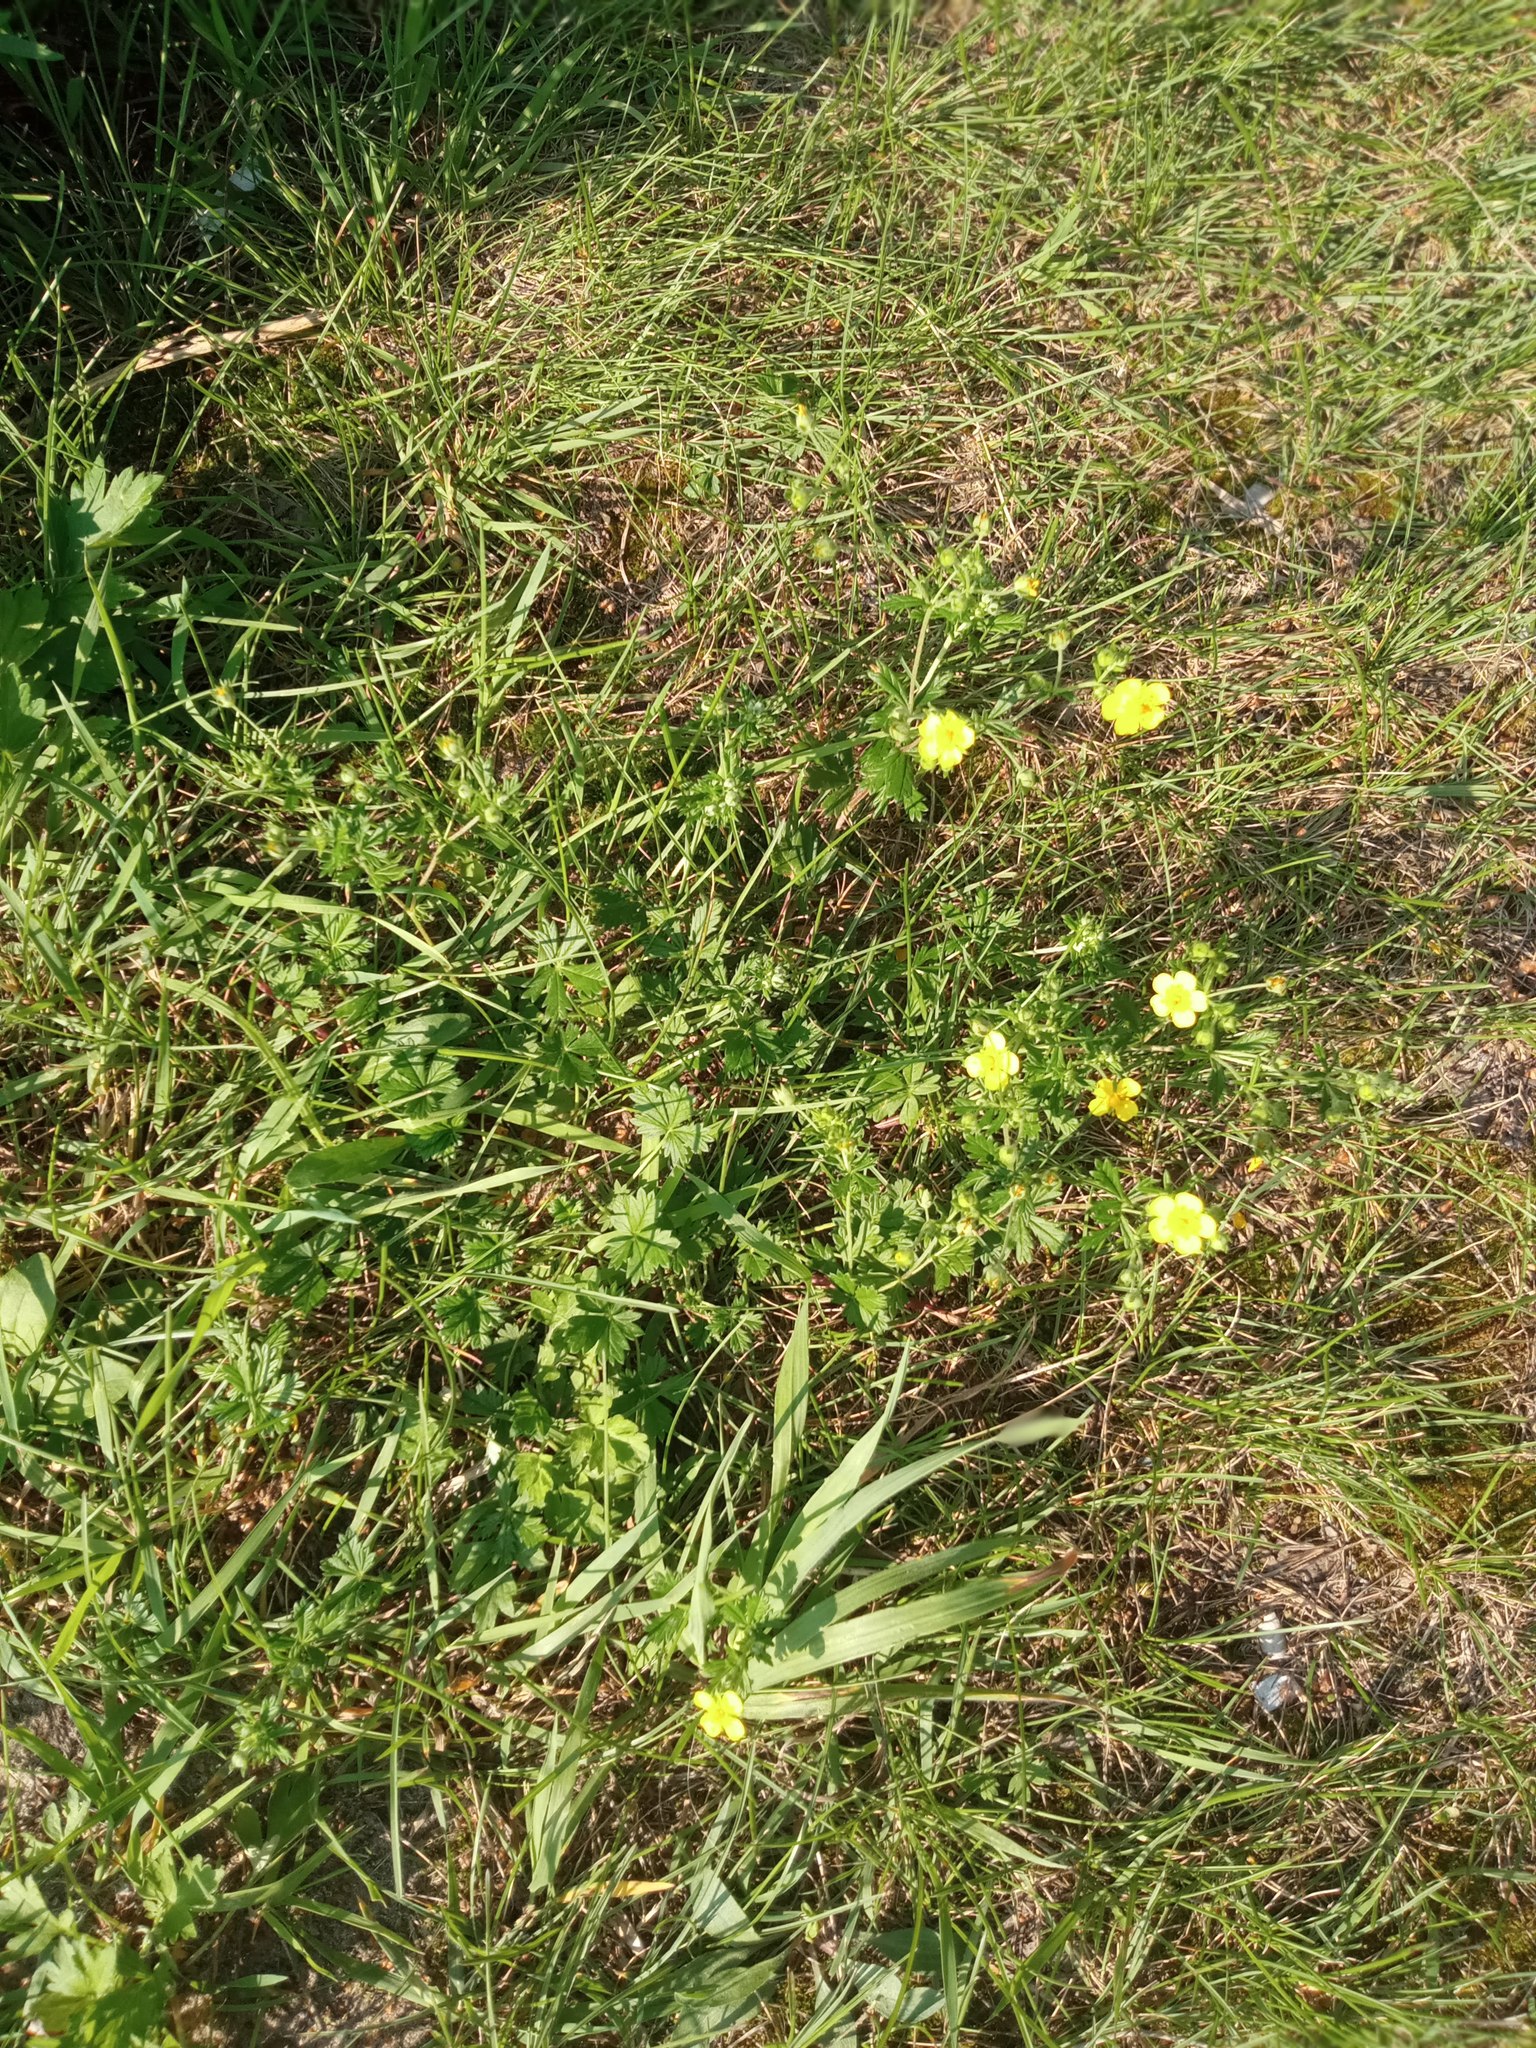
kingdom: Plantae
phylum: Tracheophyta
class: Magnoliopsida
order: Rosales
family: Rosaceae
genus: Potentilla
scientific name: Potentilla argentea
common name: Hoary cinquefoil
